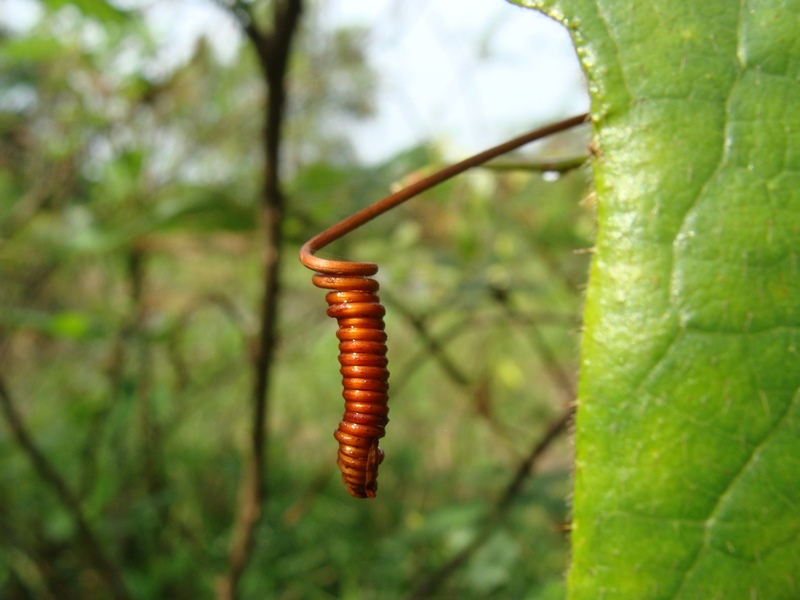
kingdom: Plantae
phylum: Tracheophyta
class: Magnoliopsida
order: Malpighiales
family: Passifloraceae
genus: Passiflora
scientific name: Passiflora foetida
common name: Fetid passionflower
